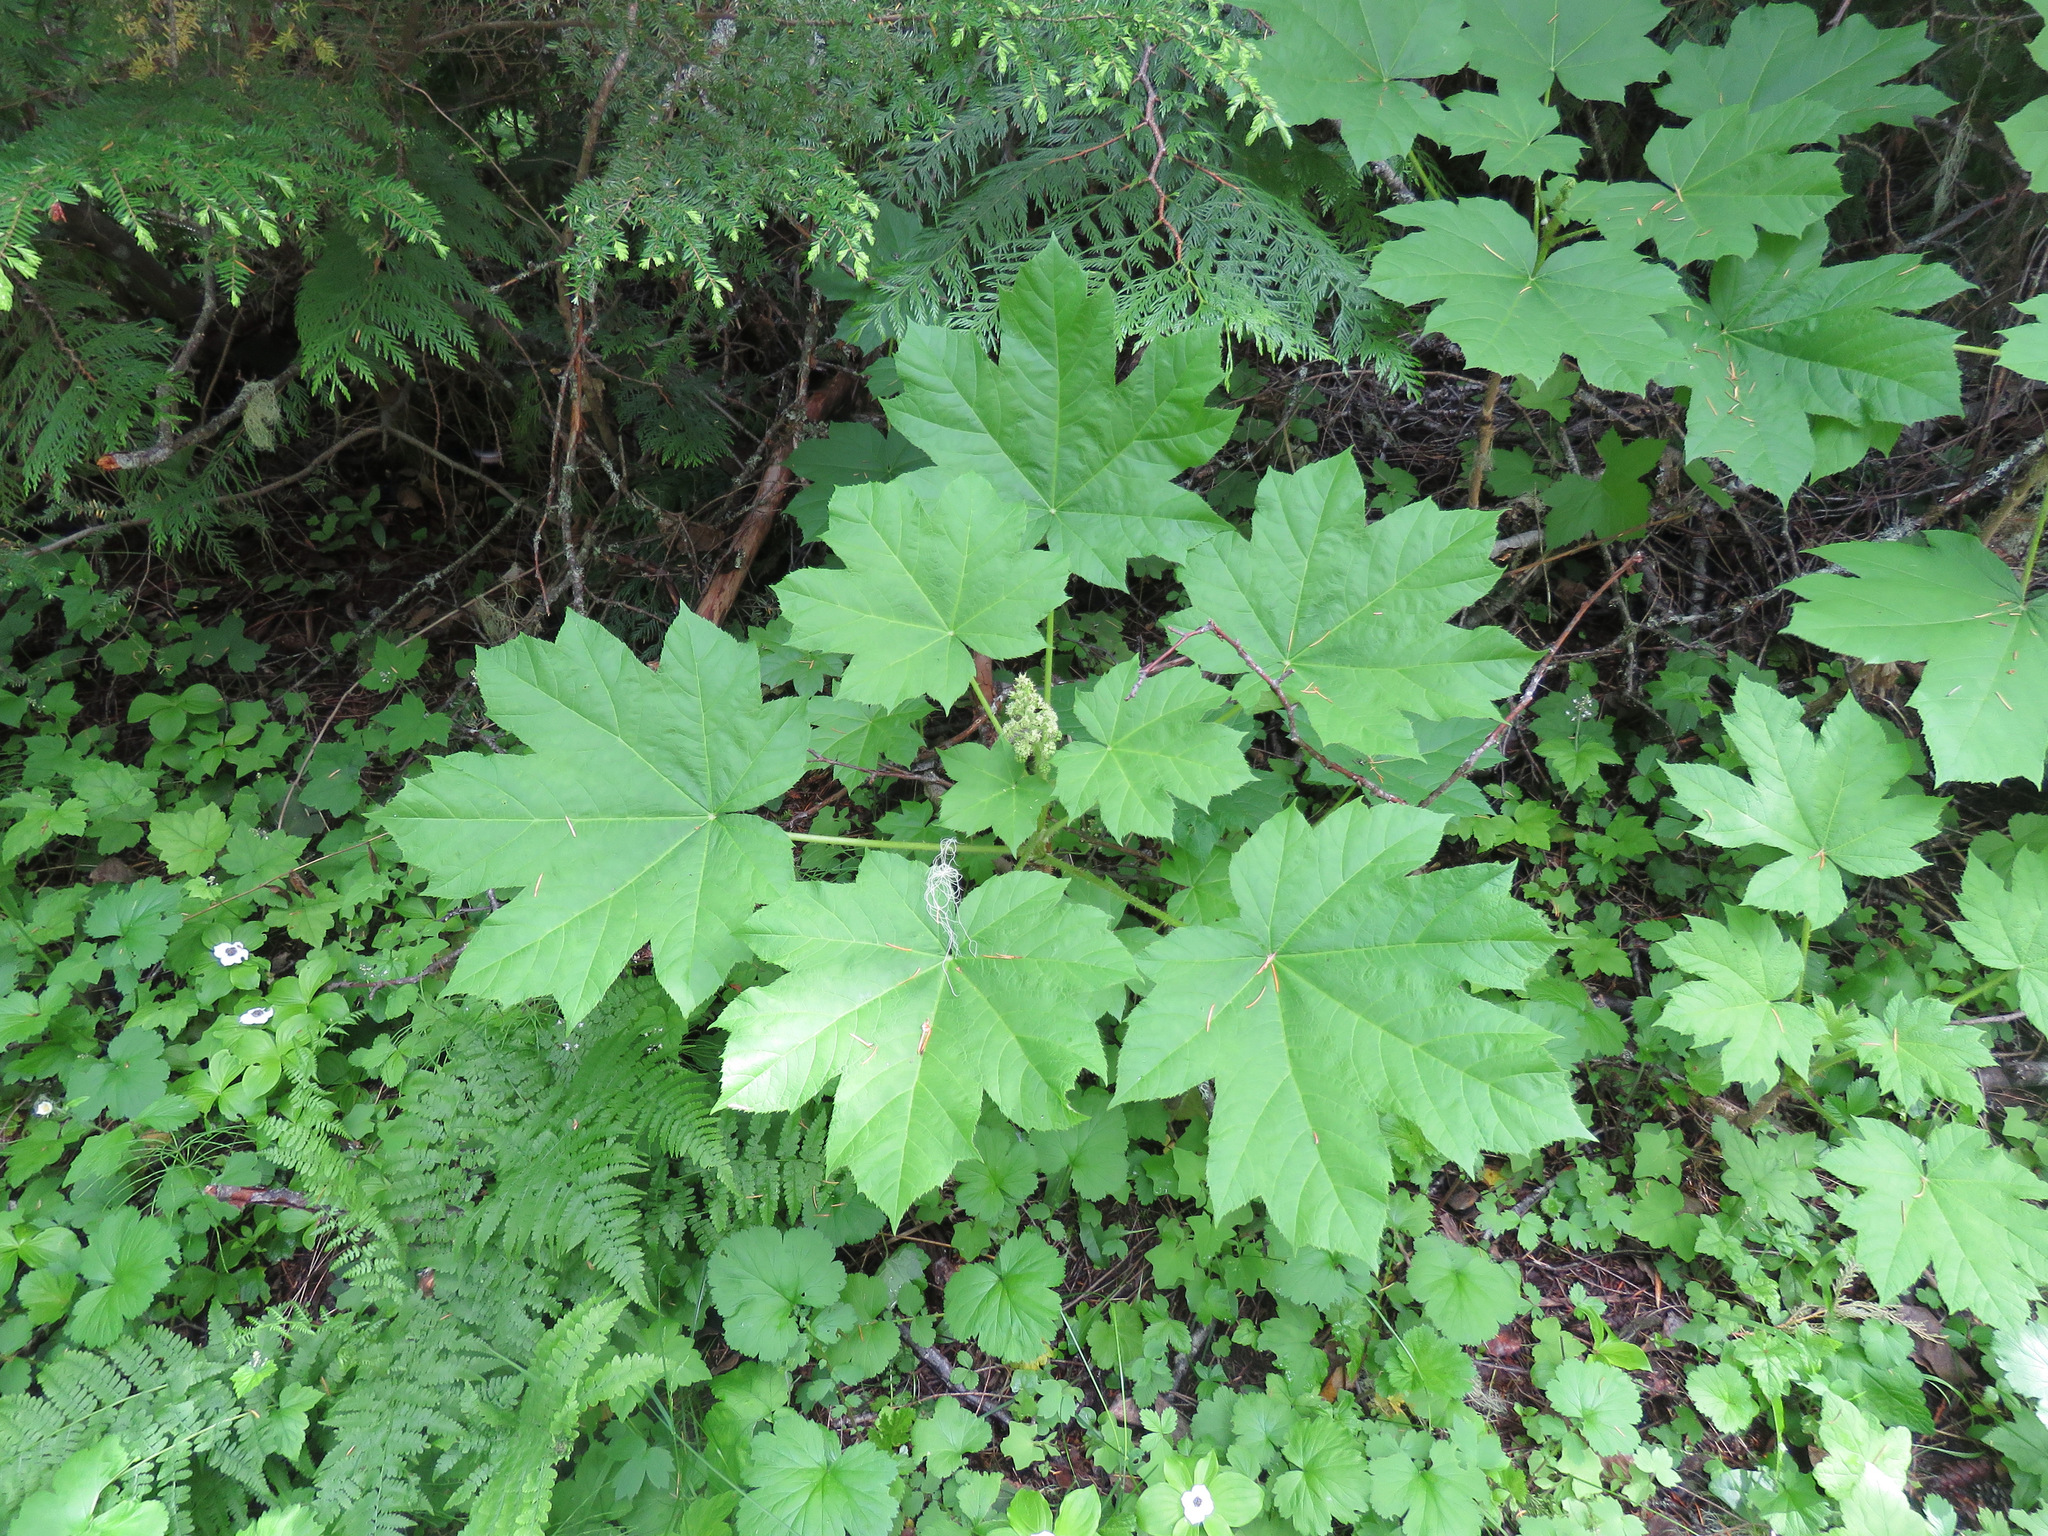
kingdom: Plantae
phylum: Tracheophyta
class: Magnoliopsida
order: Apiales
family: Araliaceae
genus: Oplopanax
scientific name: Oplopanax horridus
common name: Devil's walking-stick
